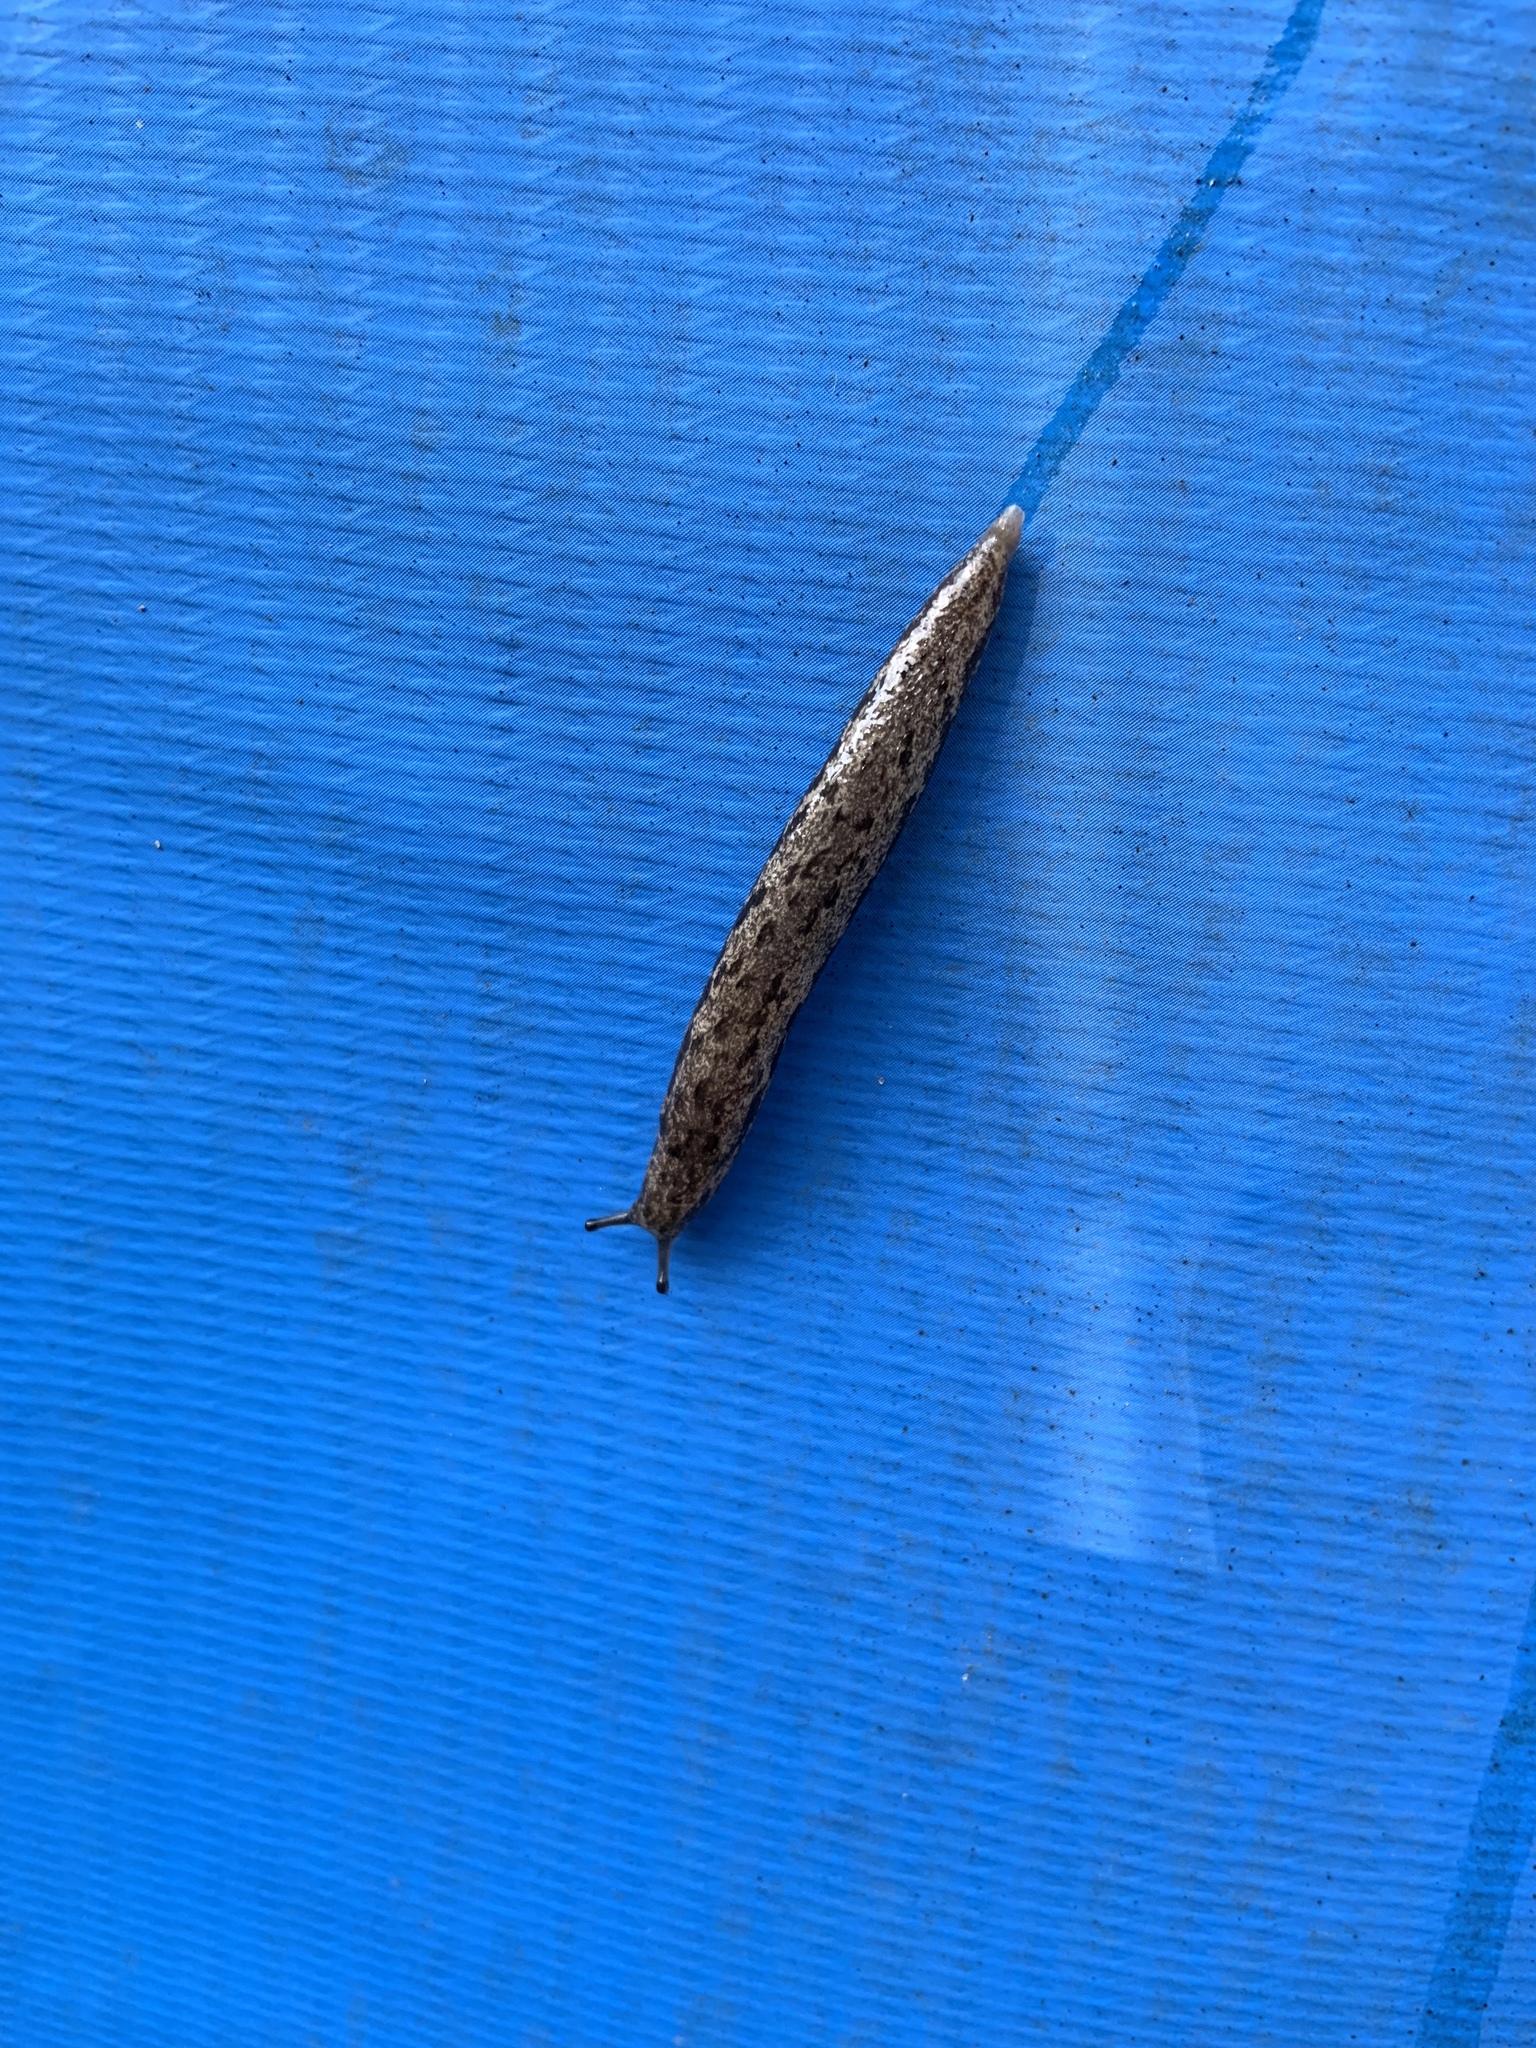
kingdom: Animalia
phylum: Mollusca
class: Gastropoda
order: Stylommatophora
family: Philomycidae
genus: Megapallifera
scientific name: Megapallifera mutabilis
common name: Changeable mantleslug
